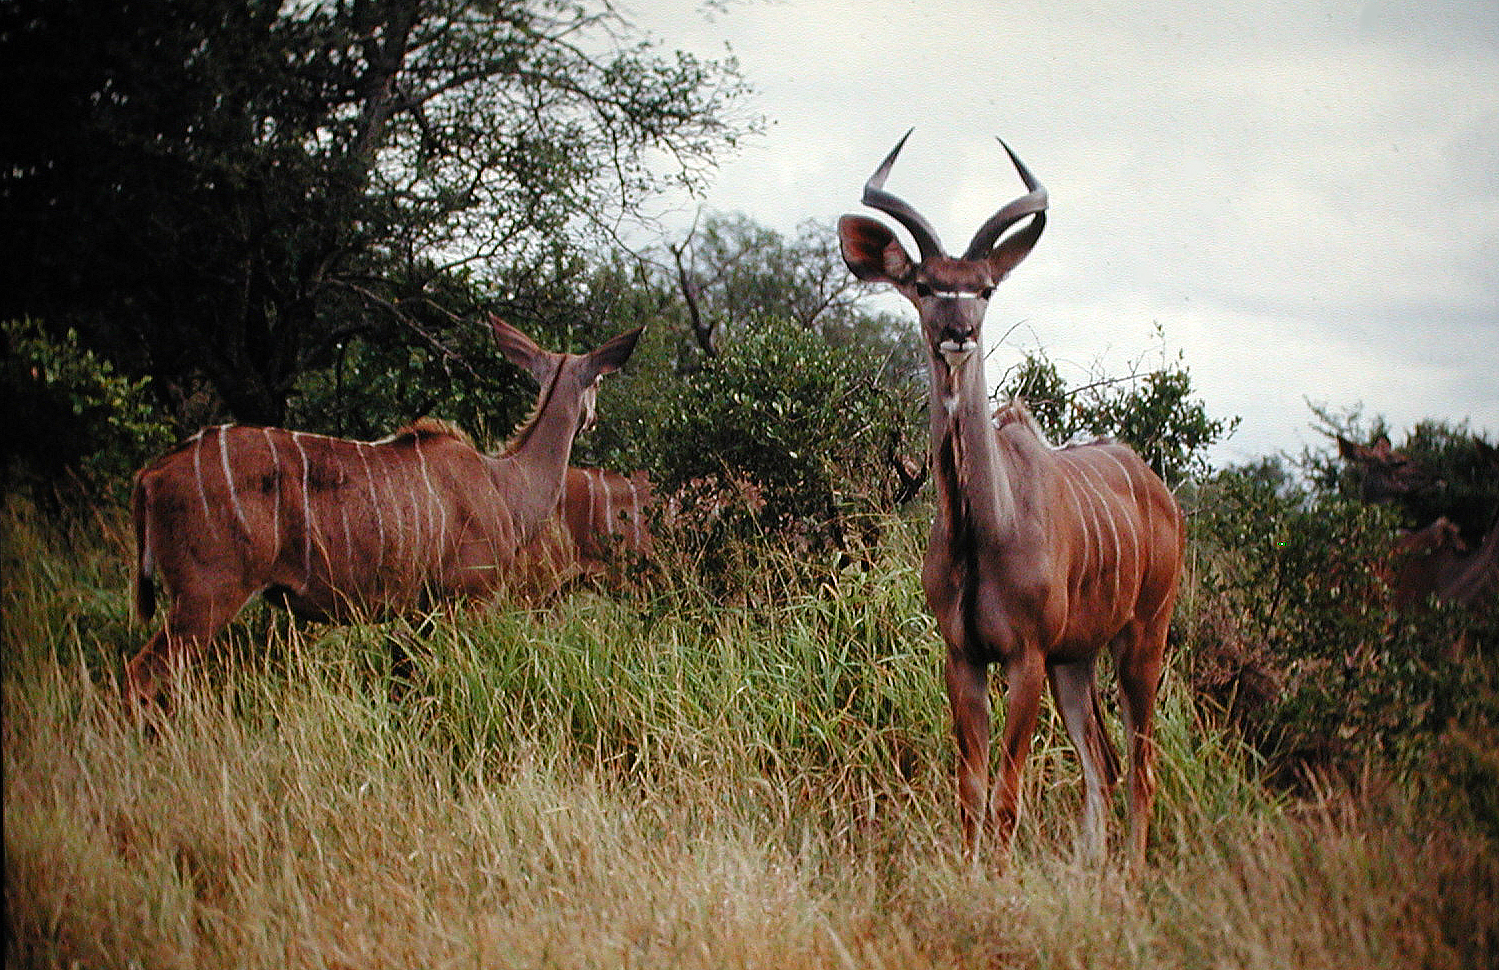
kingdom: Animalia
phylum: Chordata
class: Mammalia
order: Artiodactyla
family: Bovidae
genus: Tragelaphus
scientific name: Tragelaphus strepsiceros
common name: Greater kudu
